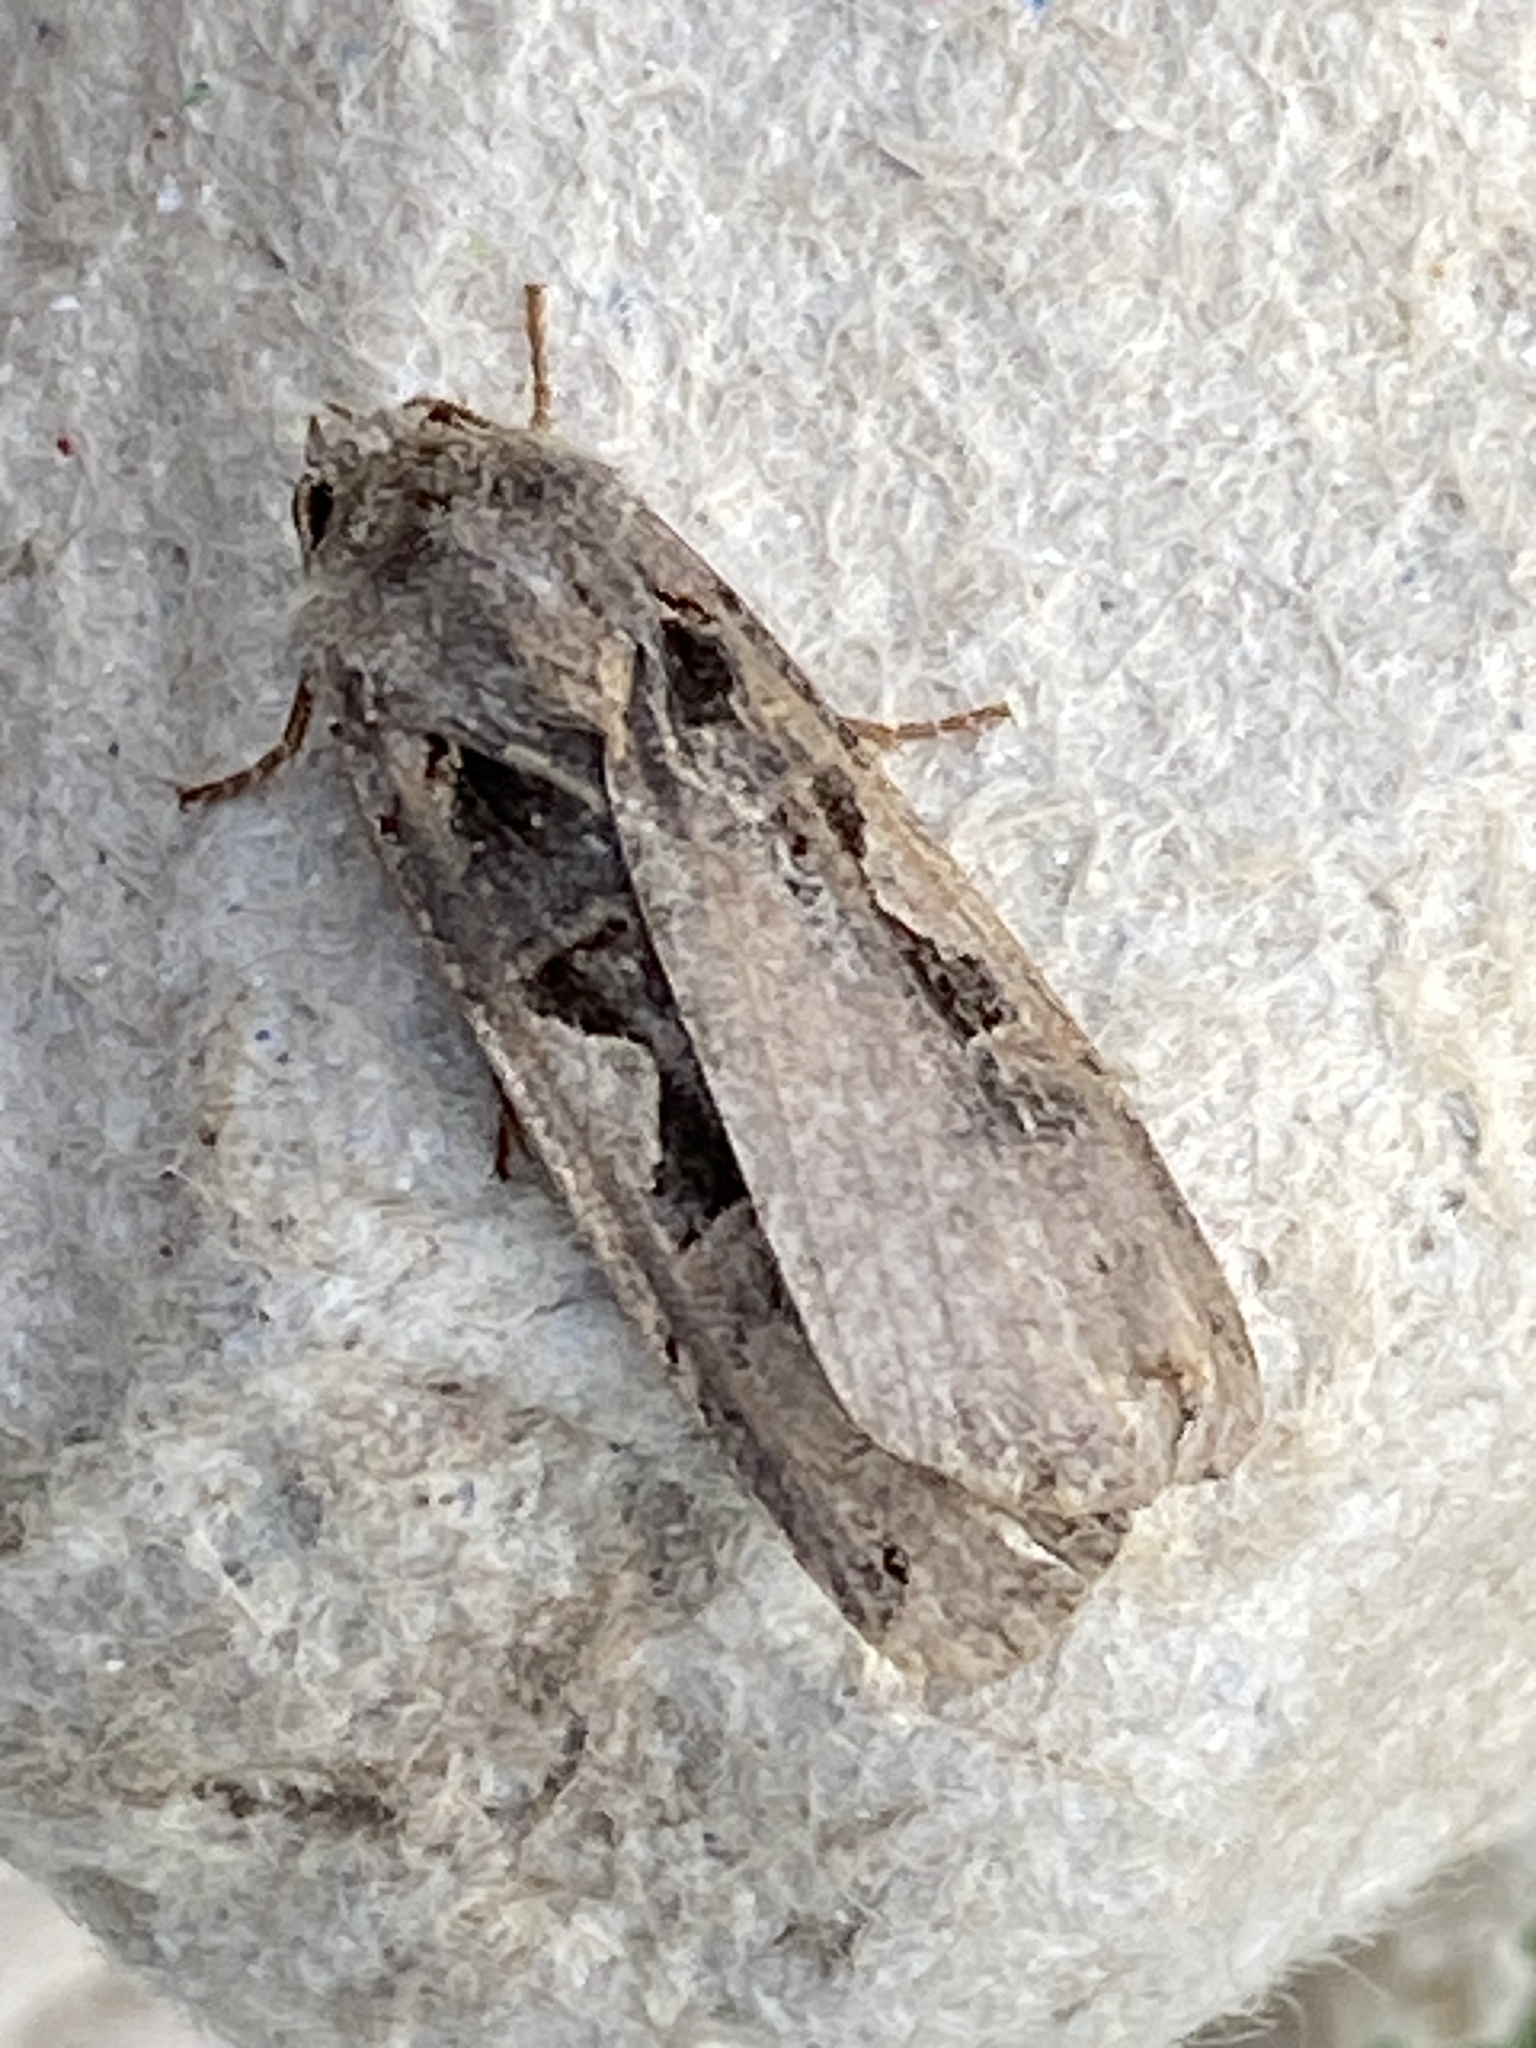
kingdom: Animalia
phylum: Arthropoda
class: Insecta
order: Lepidoptera
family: Noctuidae
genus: Xestia
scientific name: Xestia c-nigrum
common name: Setaceous hebrew character
